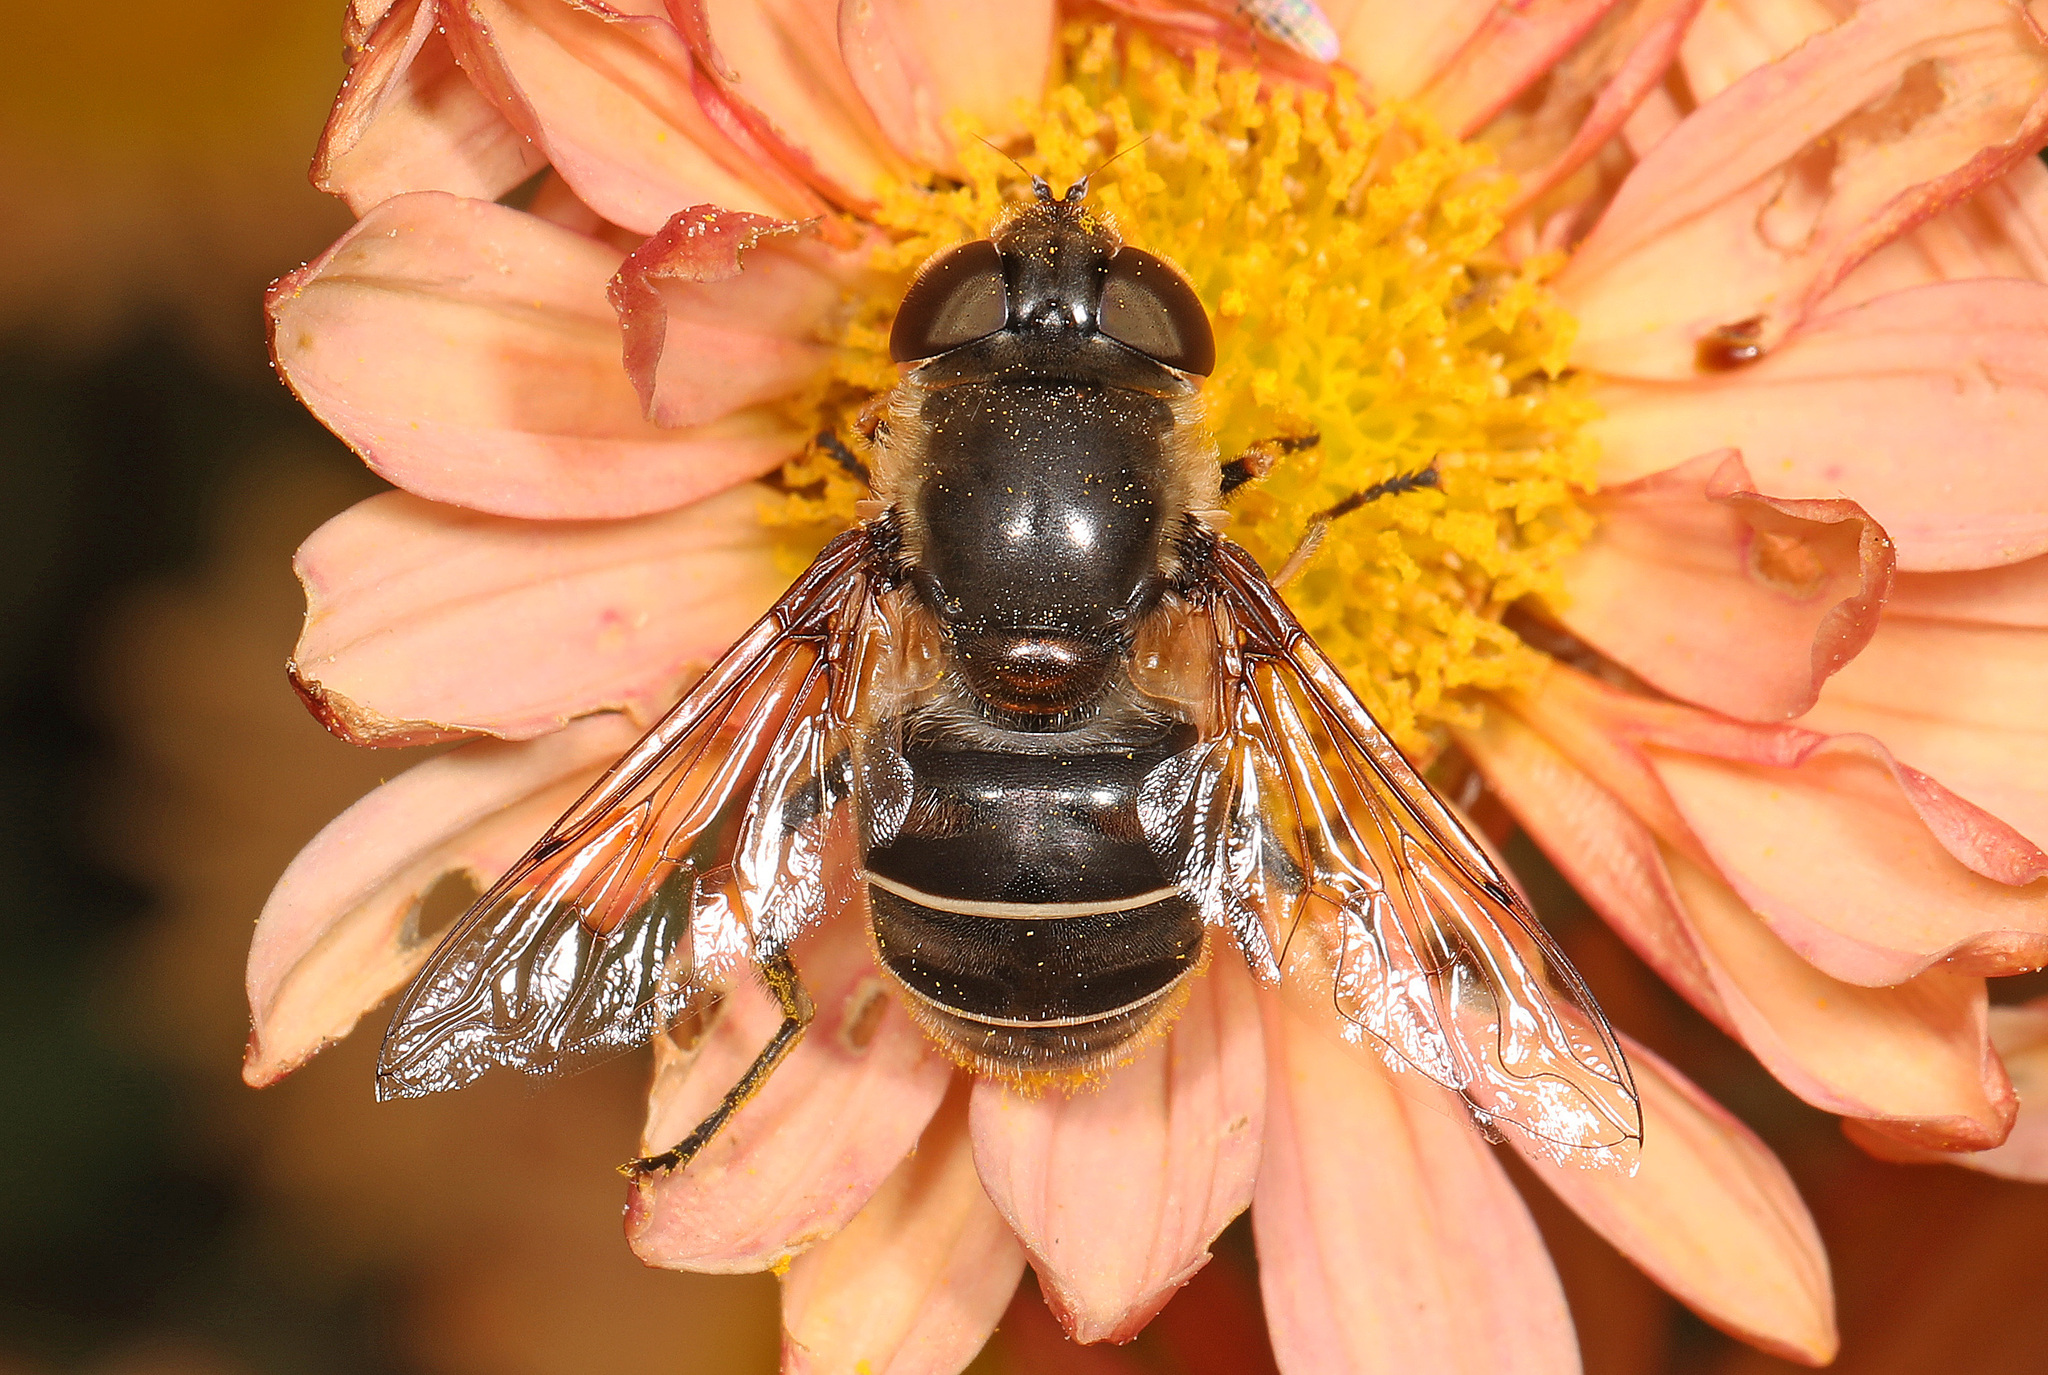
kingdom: Animalia
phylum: Arthropoda
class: Insecta
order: Diptera
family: Syrphidae
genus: Eristalis
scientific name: Eristalis dimidiata
